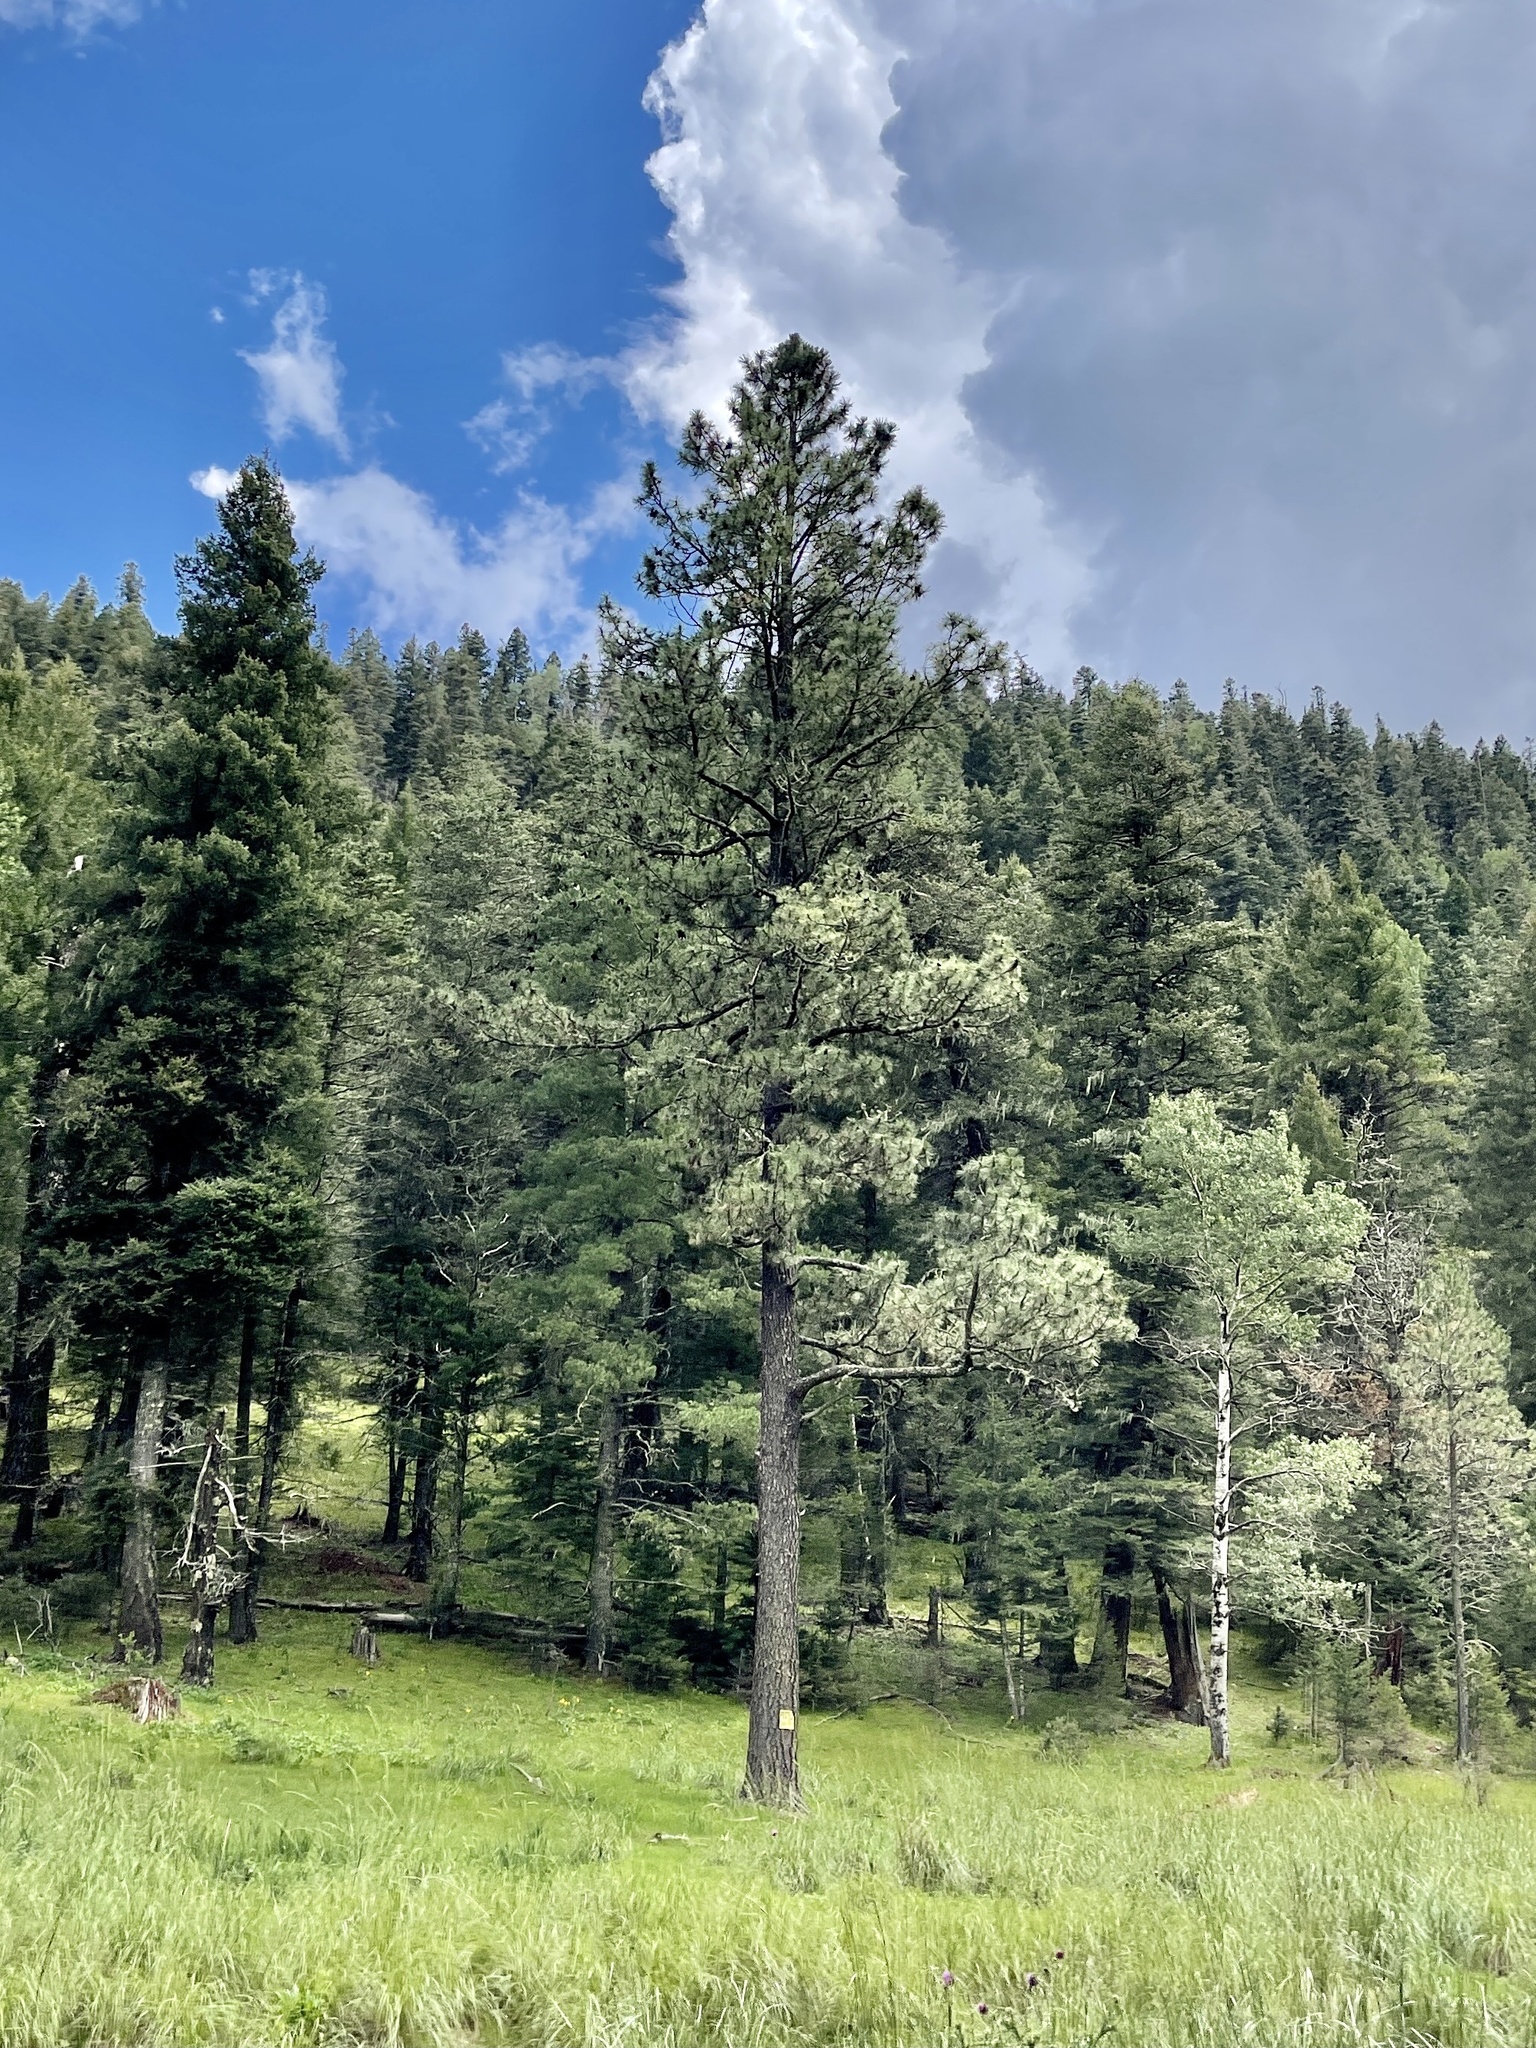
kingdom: Plantae
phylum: Tracheophyta
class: Pinopsida
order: Pinales
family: Pinaceae
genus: Pinus
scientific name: Pinus ponderosa
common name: Western yellow-pine
